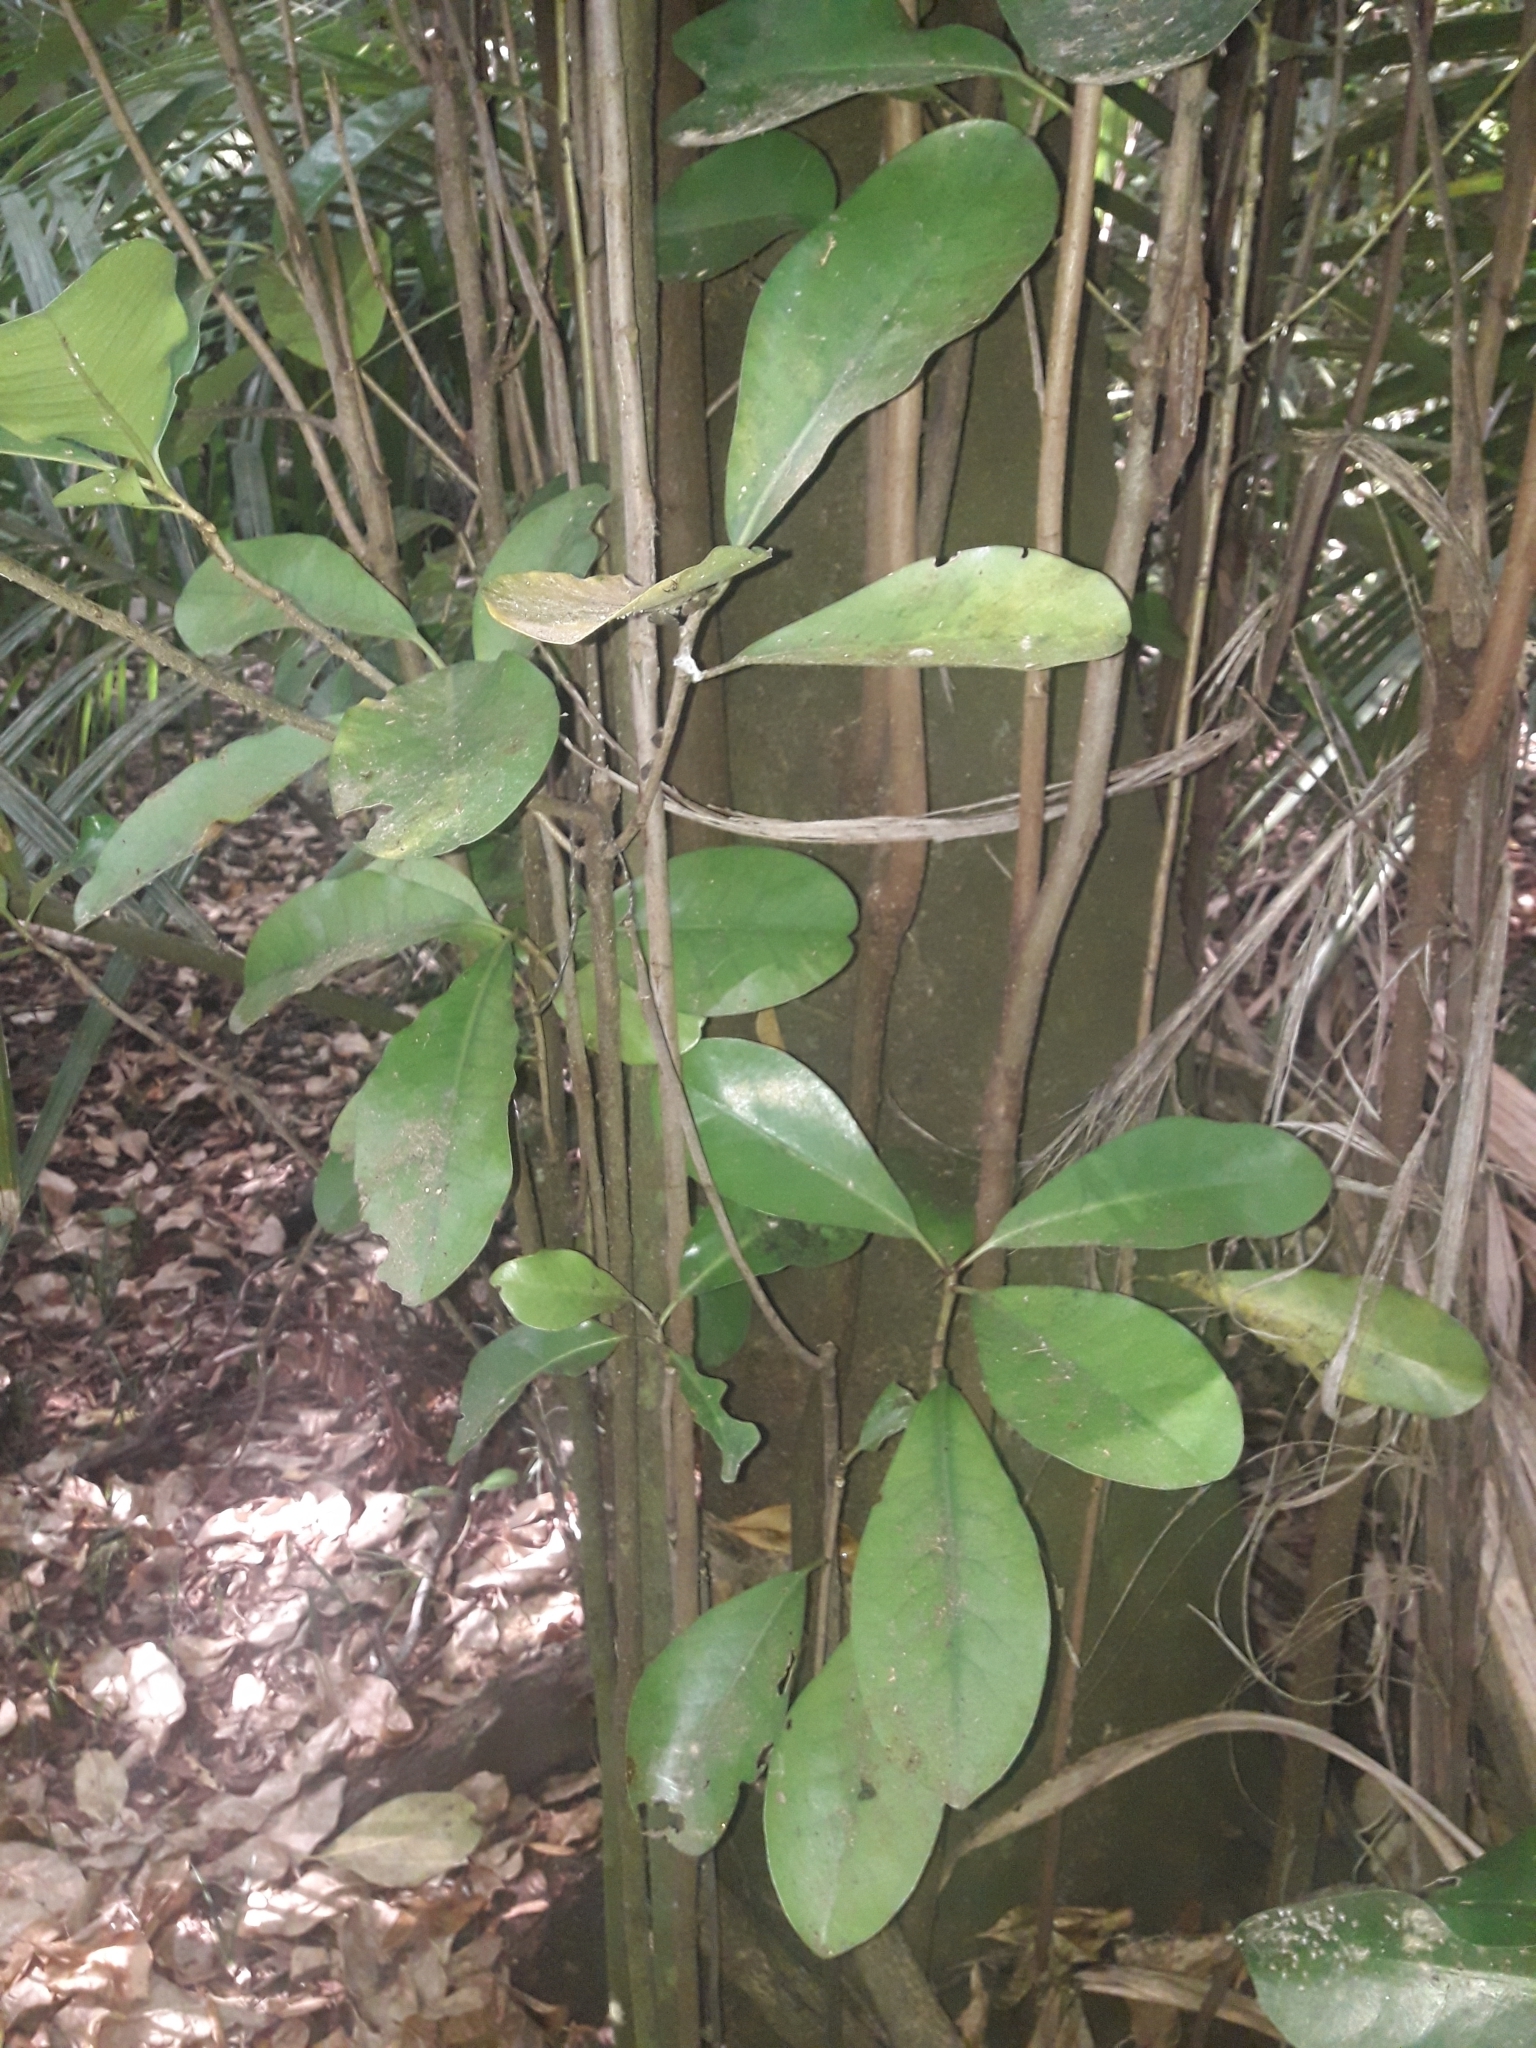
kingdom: Plantae
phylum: Tracheophyta
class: Magnoliopsida
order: Cucurbitales
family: Corynocarpaceae
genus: Corynocarpus
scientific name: Corynocarpus laevigatus
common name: New zealand laurel
